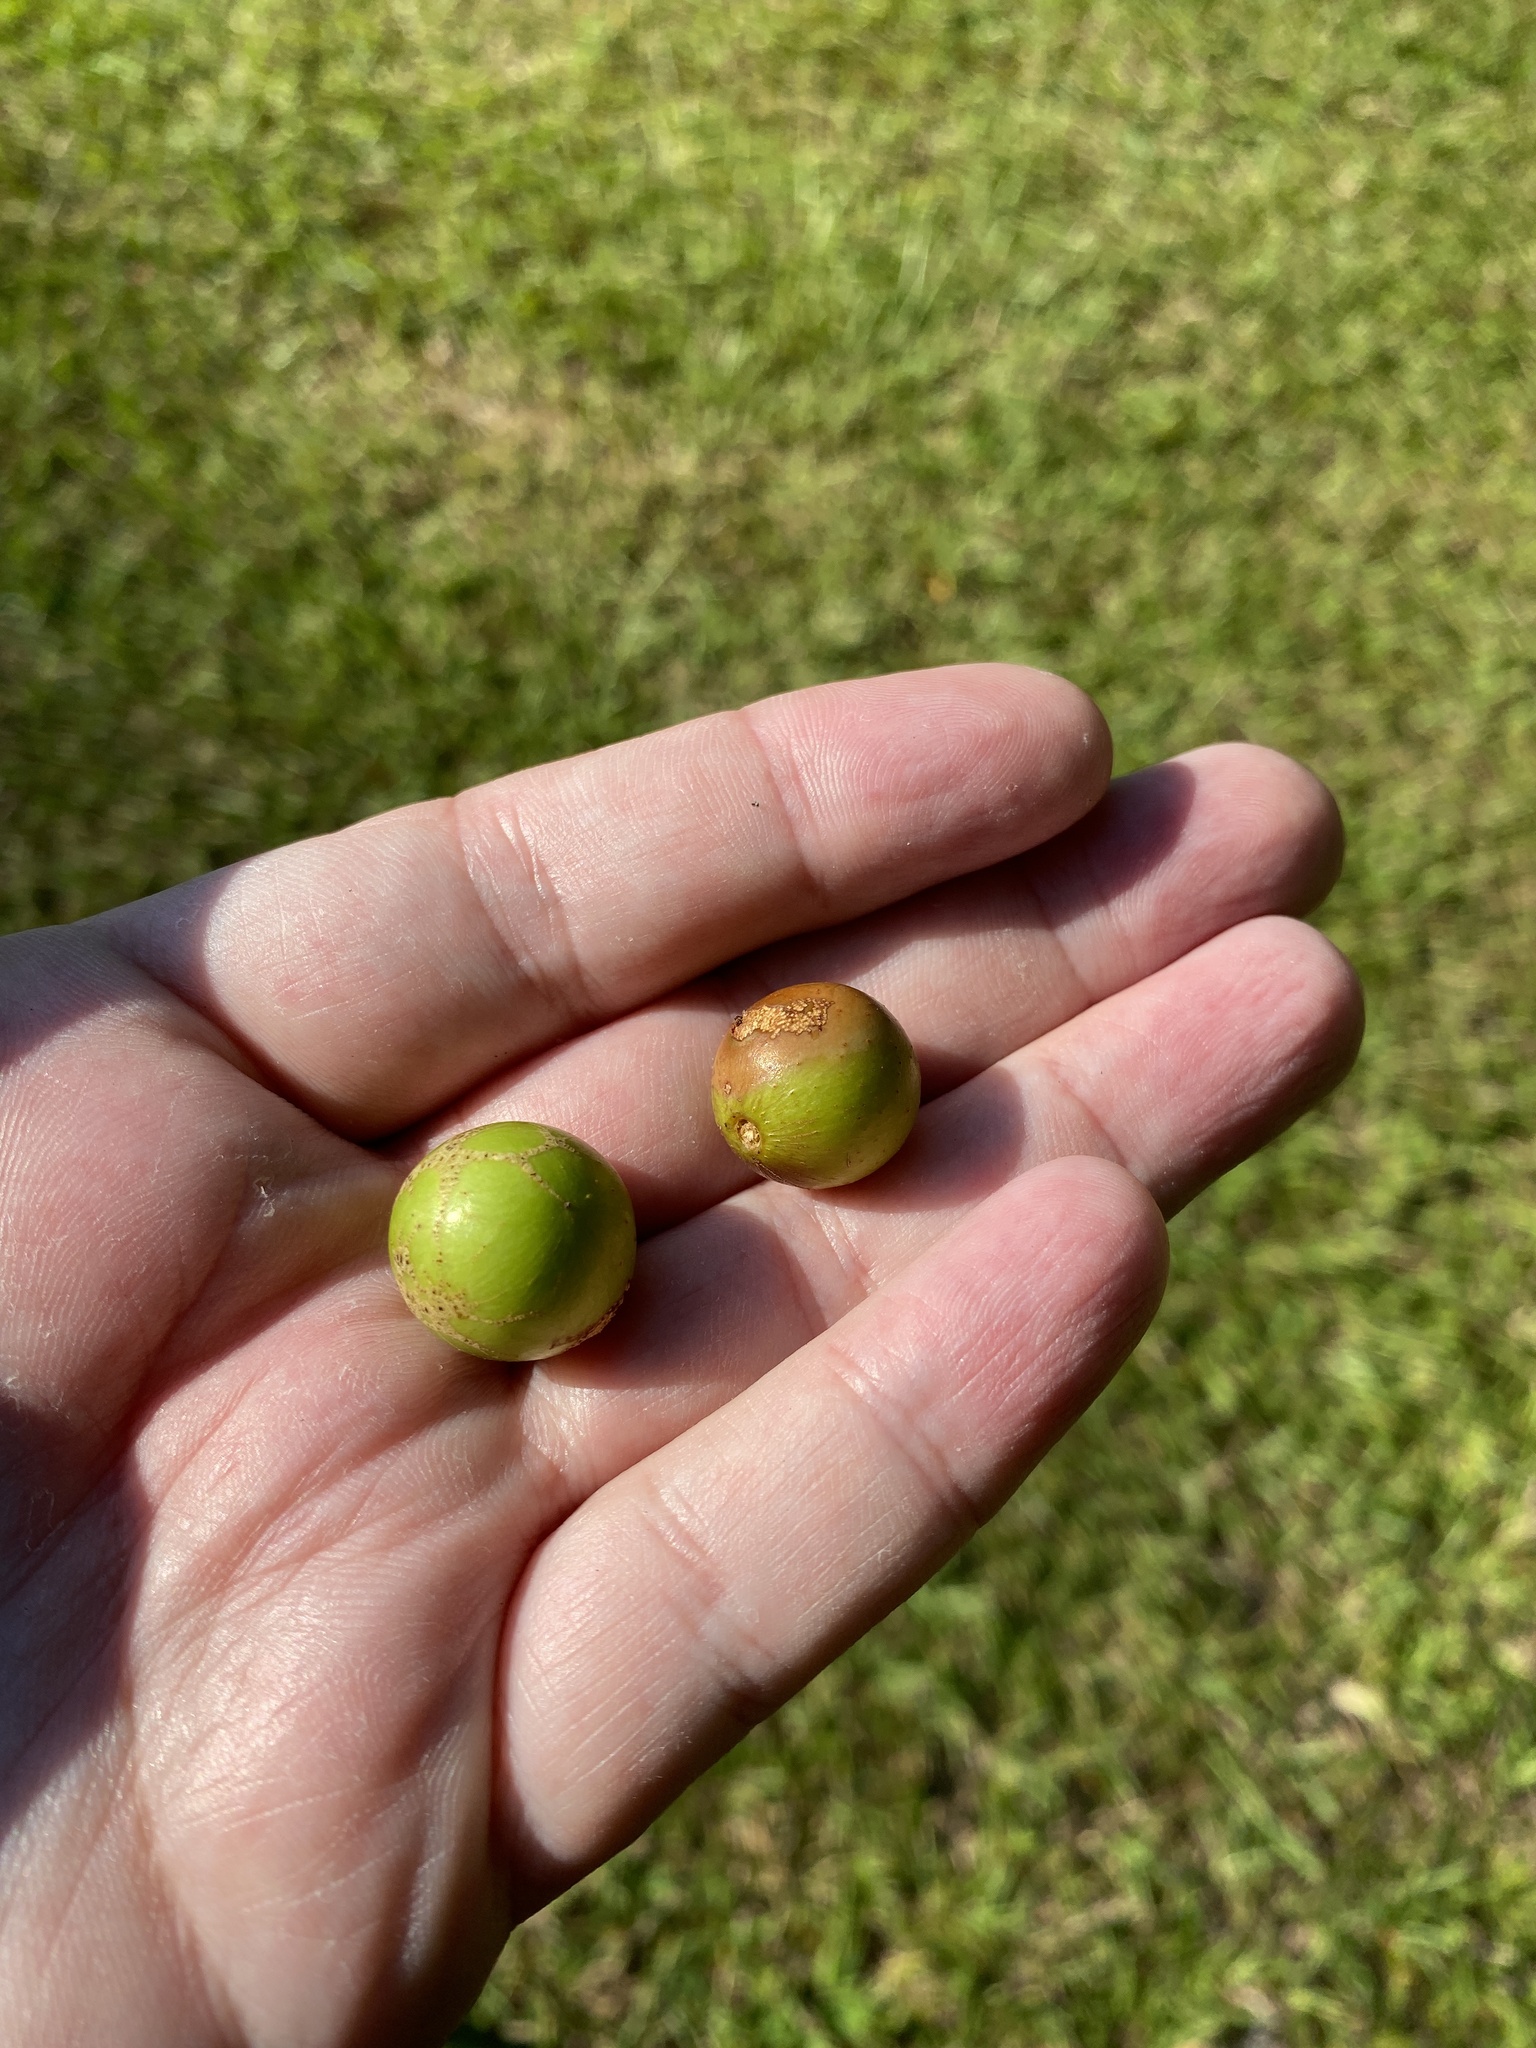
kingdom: Plantae
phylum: Tracheophyta
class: Magnoliopsida
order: Vitales
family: Vitaceae
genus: Vitis
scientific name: Vitis rotundifolia
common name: Muscadine grape
